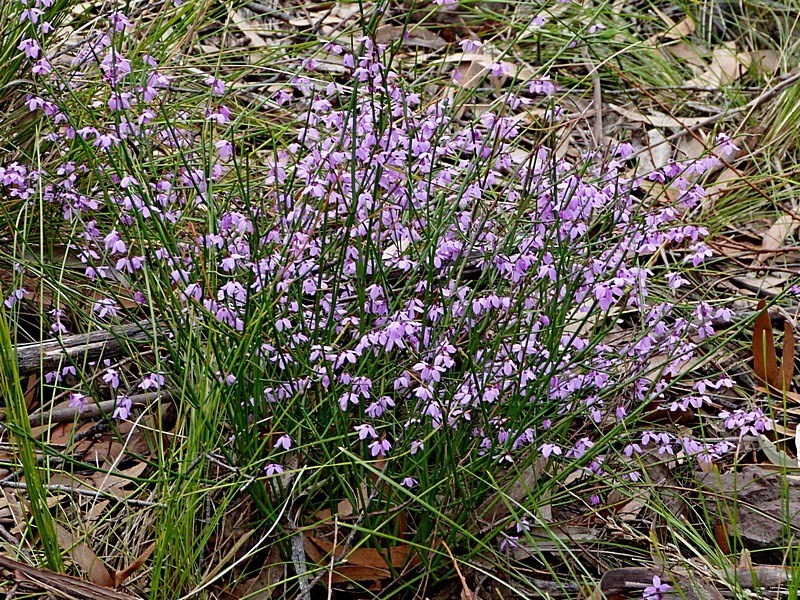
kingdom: Plantae
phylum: Tracheophyta
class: Magnoliopsida
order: Oxalidales
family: Elaeocarpaceae
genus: Tetratheca
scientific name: Tetratheca subaphylla
